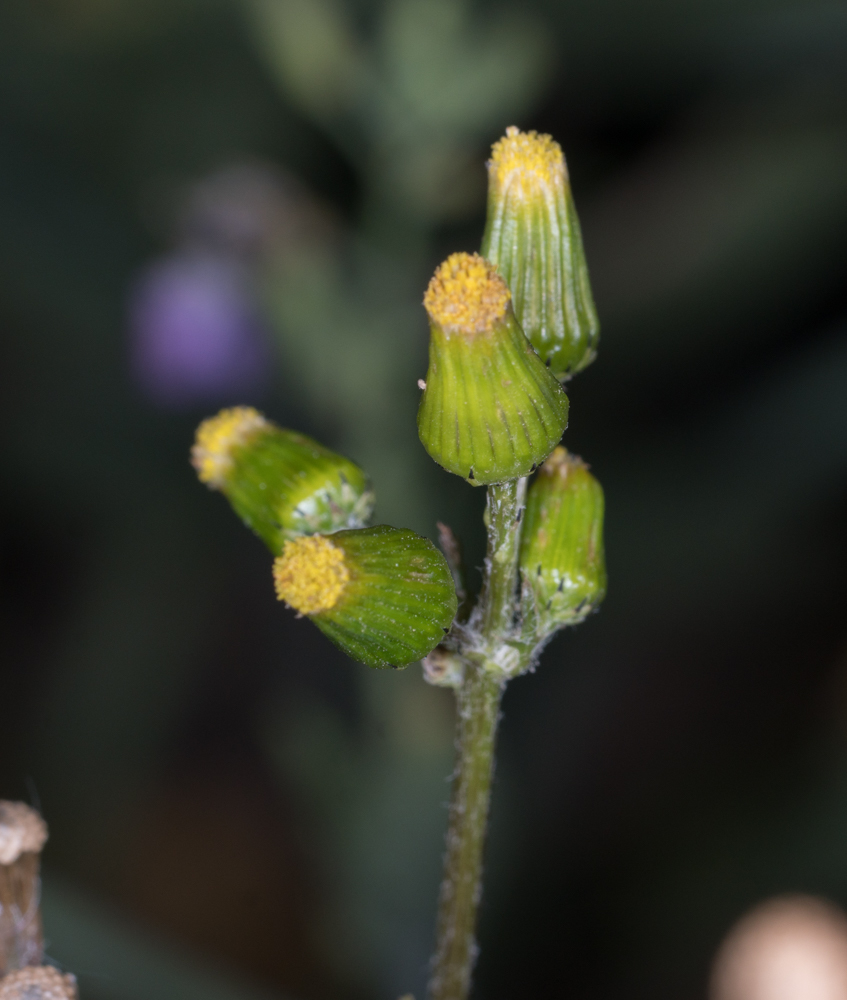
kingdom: Plantae
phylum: Tracheophyta
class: Magnoliopsida
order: Asterales
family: Asteraceae
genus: Senecio
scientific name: Senecio vulgaris
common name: Old-man-in-the-spring
